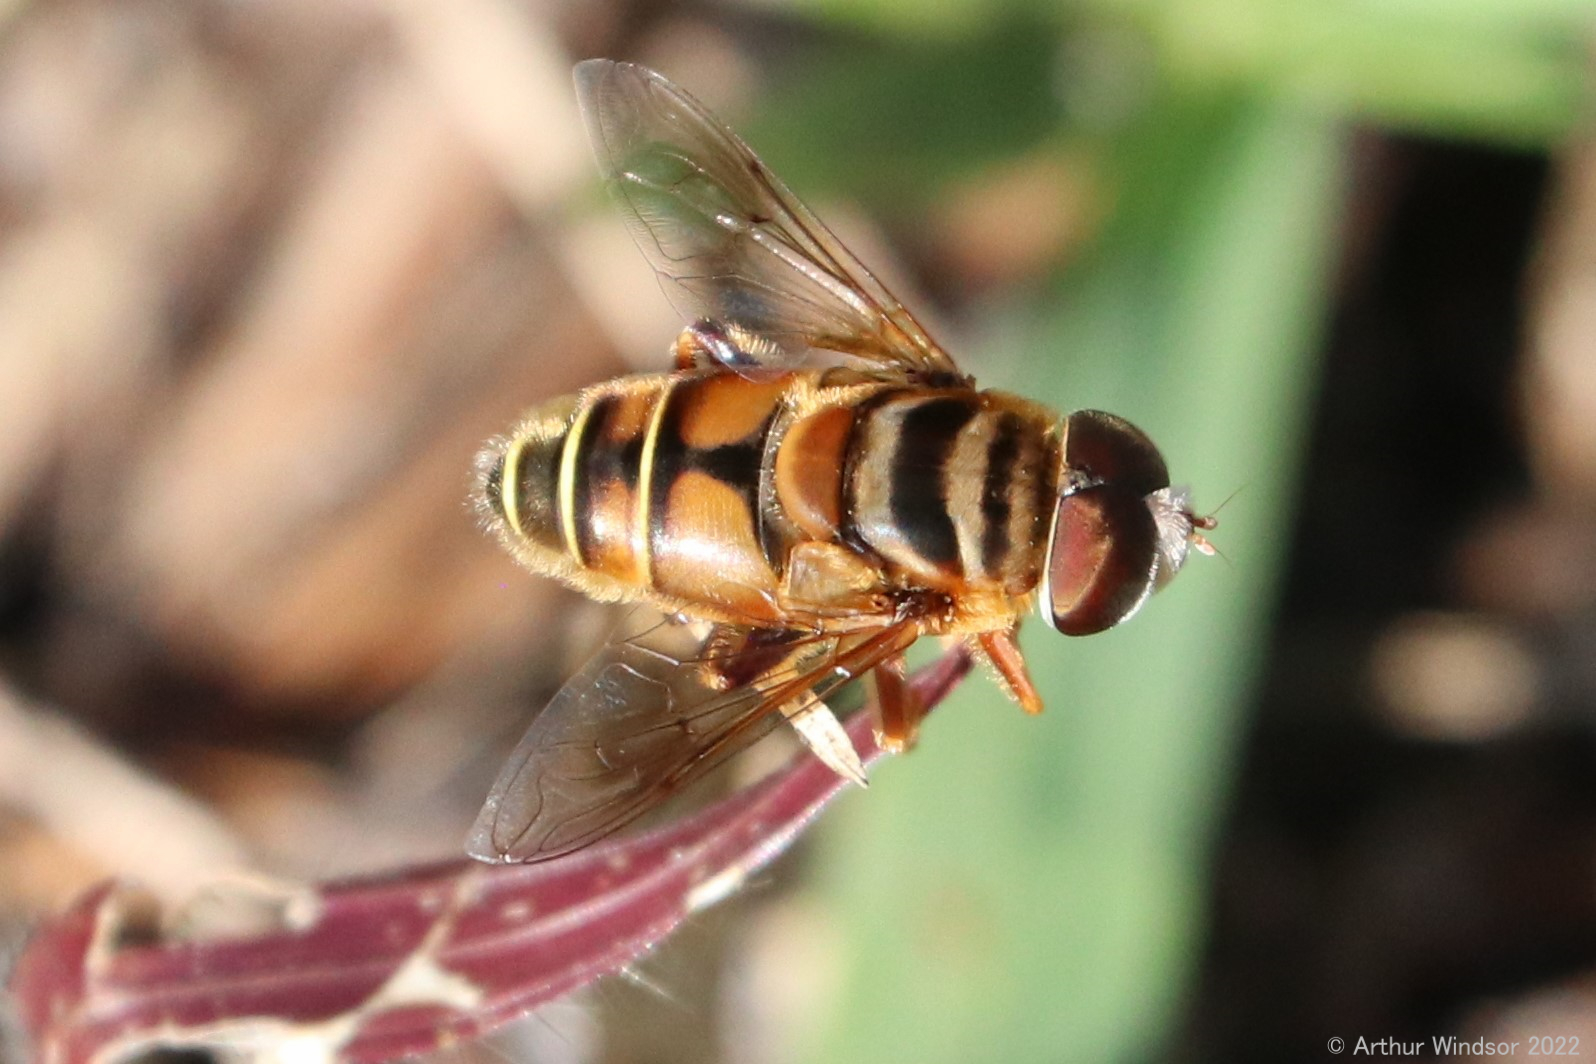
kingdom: Animalia
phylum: Arthropoda
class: Insecta
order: Diptera
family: Syrphidae
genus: Palpada
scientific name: Palpada vinetorum
